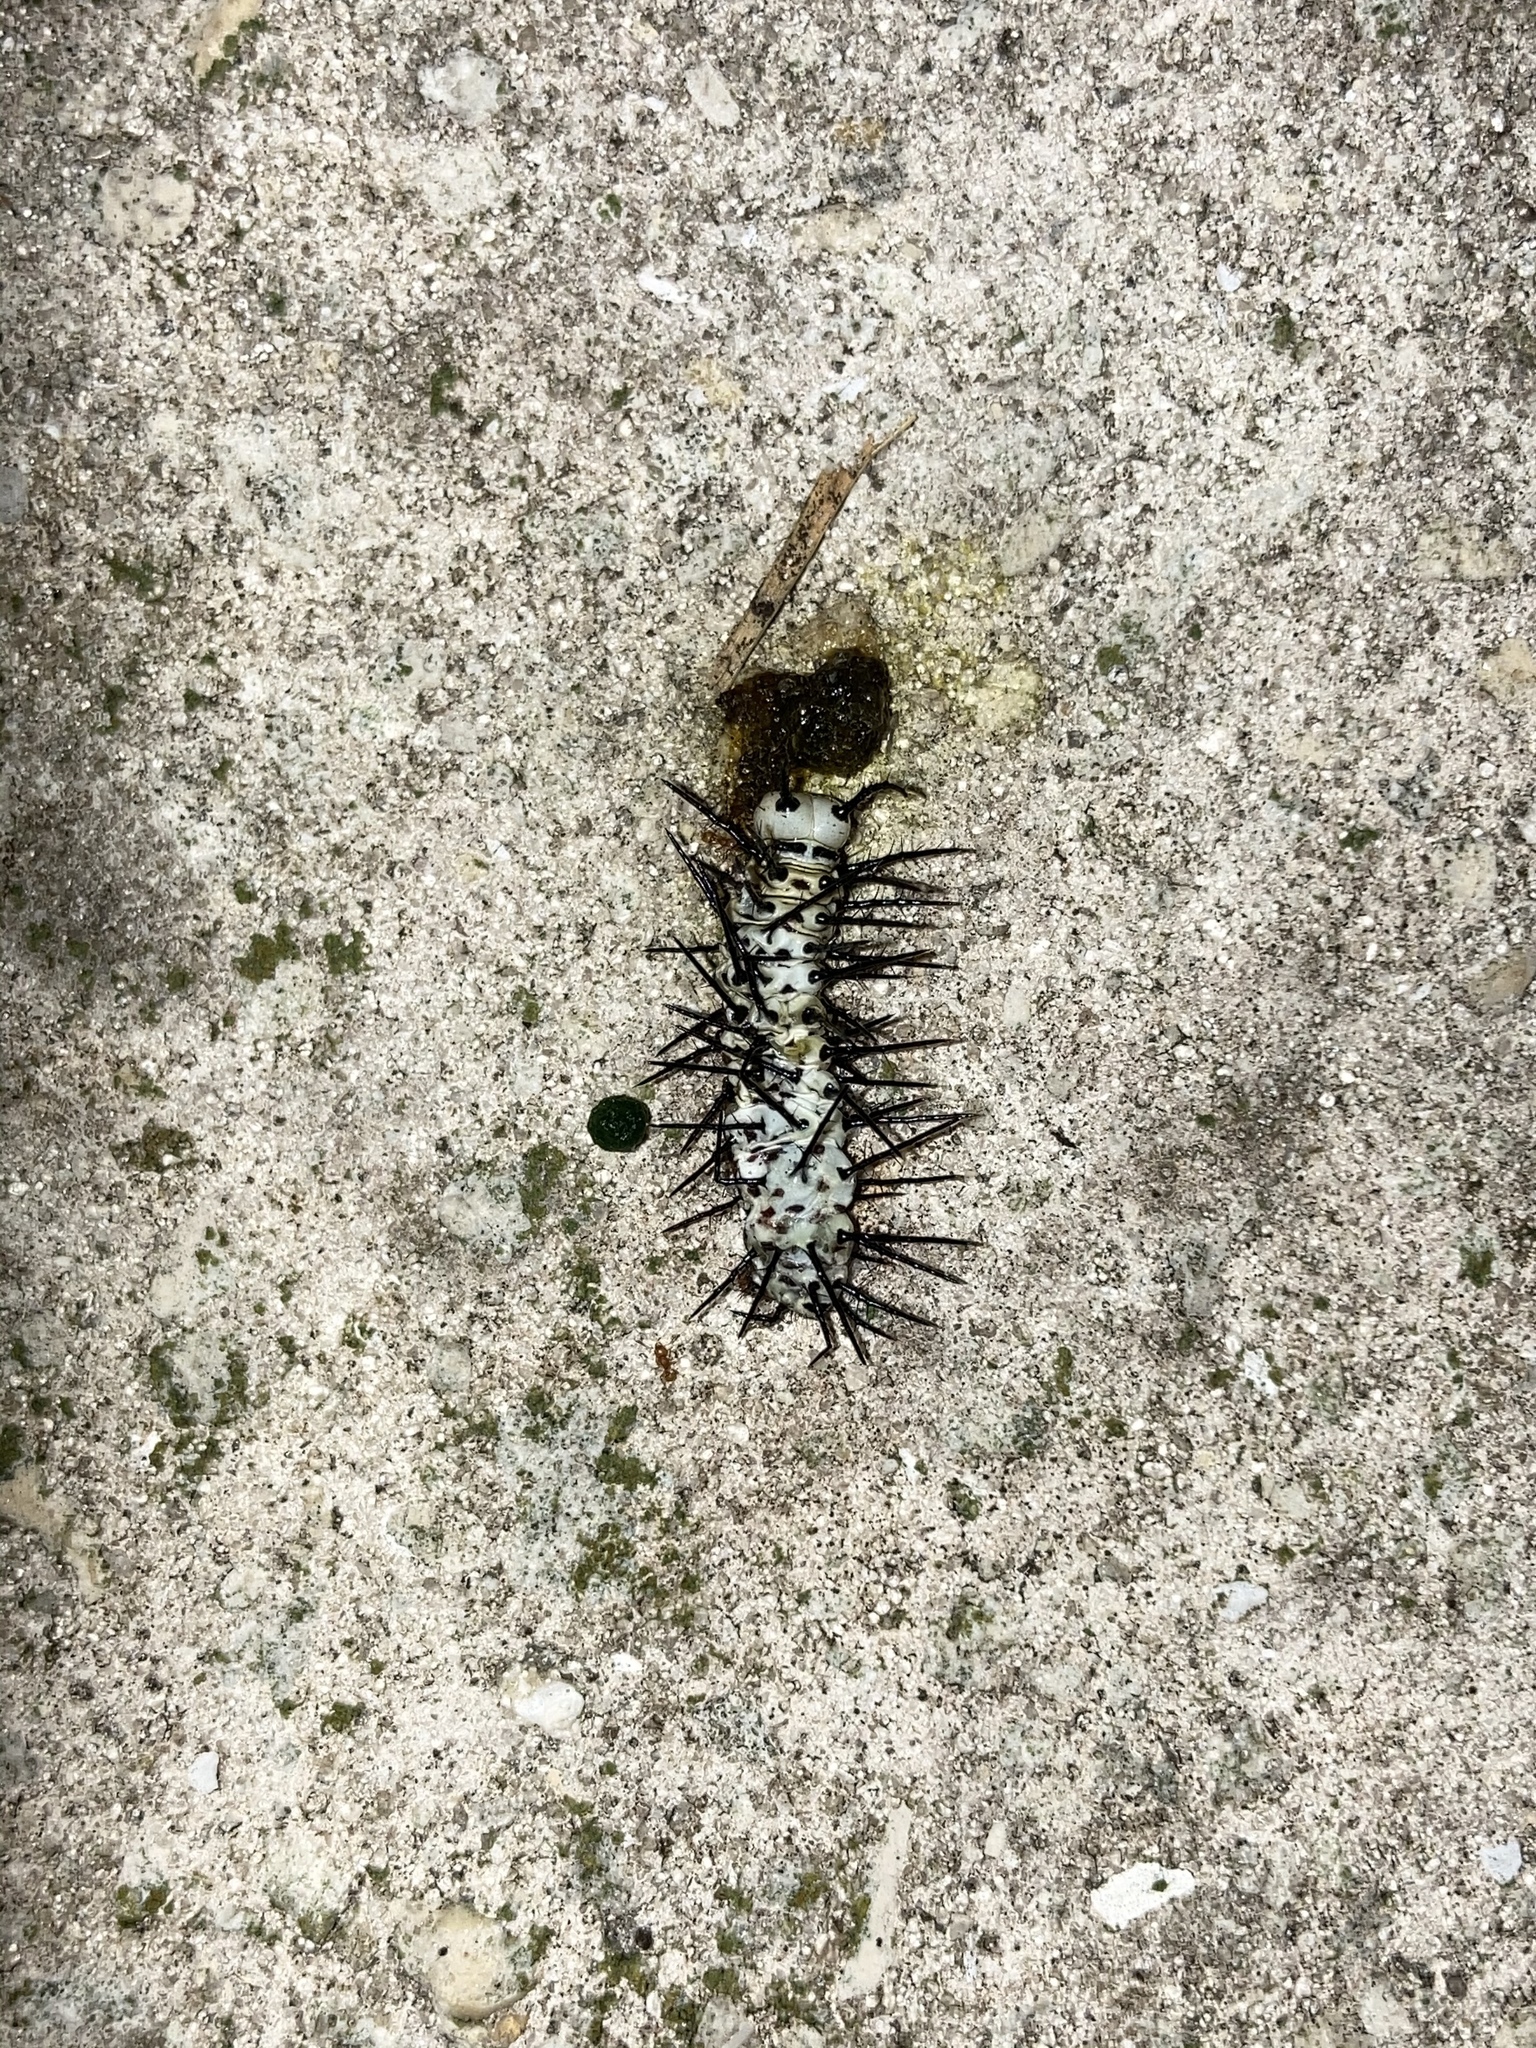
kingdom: Animalia
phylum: Arthropoda
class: Insecta
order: Lepidoptera
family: Nymphalidae
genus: Heliconius
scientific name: Heliconius charithonia
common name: Zebra long wing
